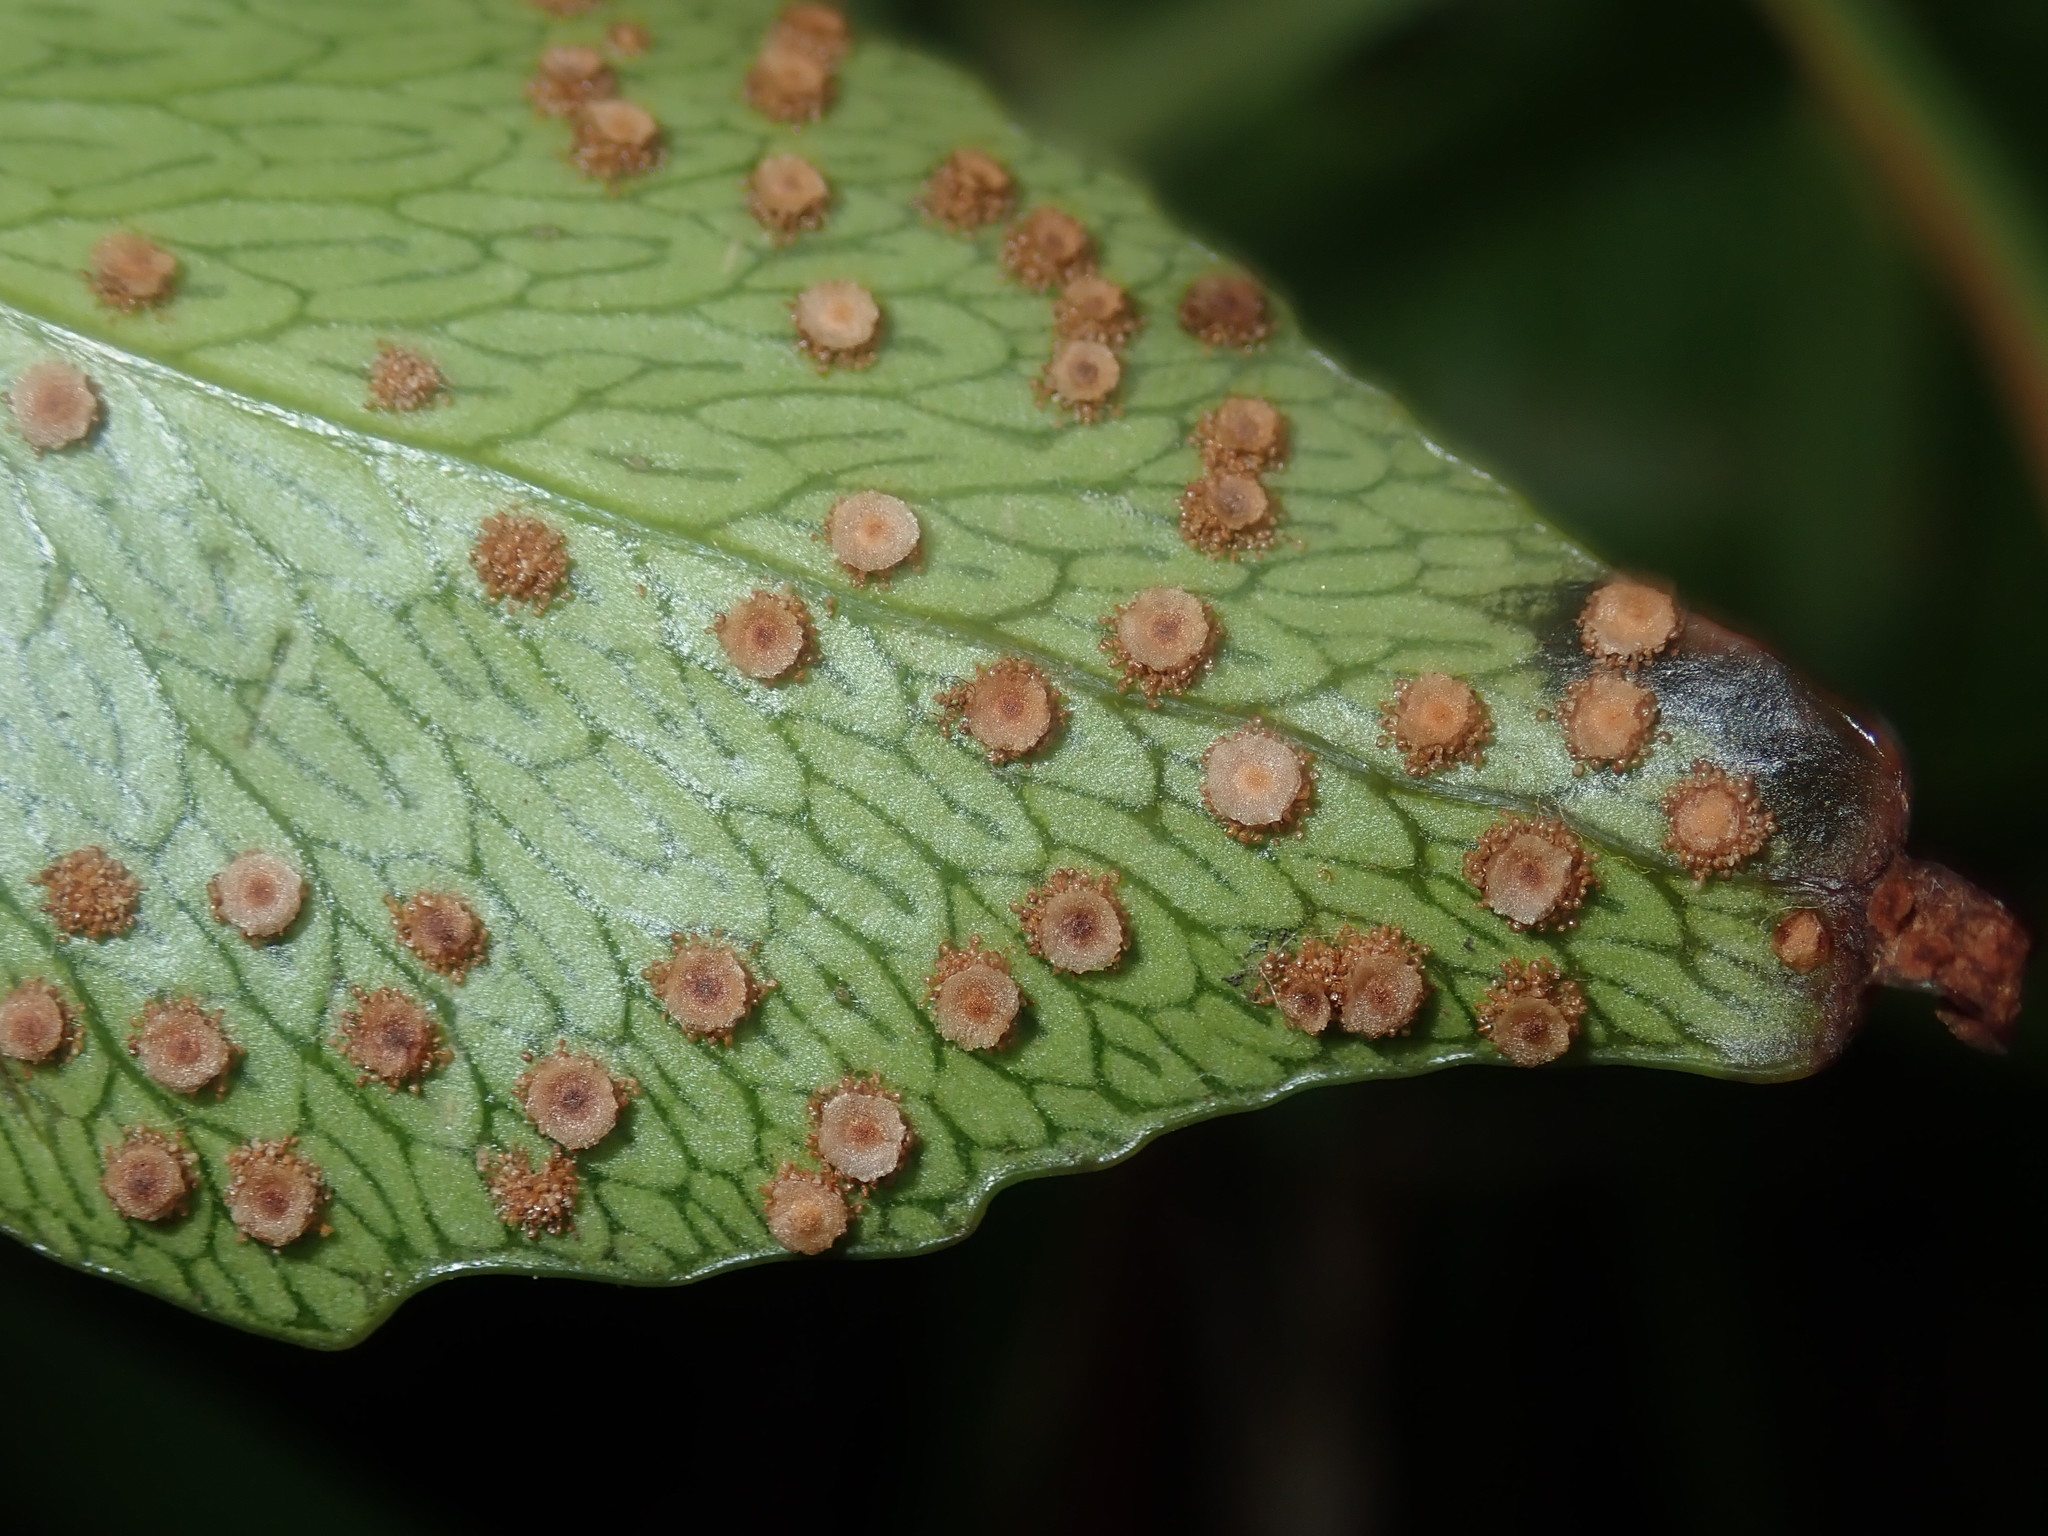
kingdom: Plantae
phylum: Tracheophyta
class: Polypodiopsida
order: Polypodiales
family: Dryopteridaceae
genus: Cyrtomium
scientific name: Cyrtomium falcatum
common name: House holly-fern
